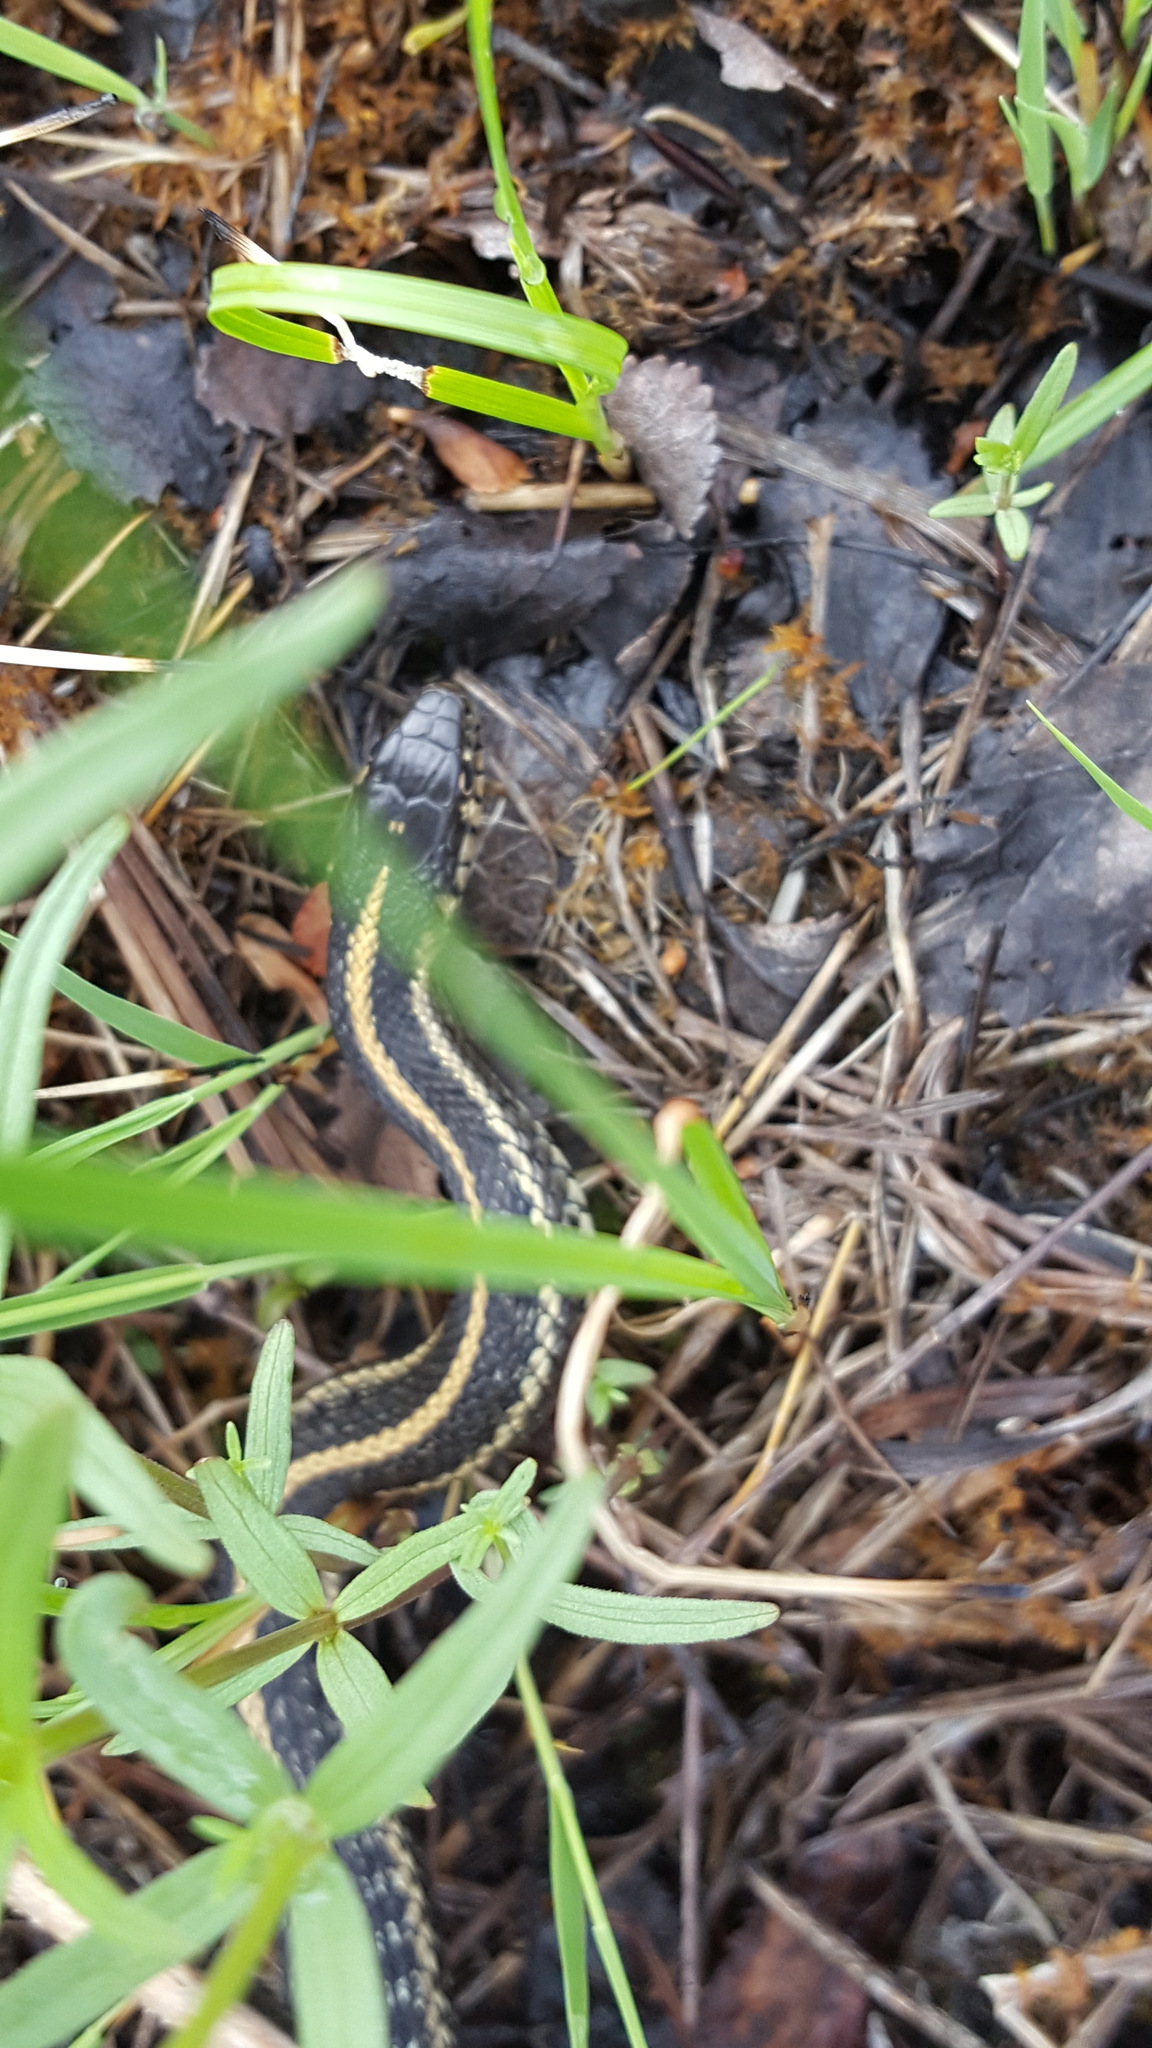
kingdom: Animalia
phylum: Chordata
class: Squamata
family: Colubridae
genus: Thamnophis
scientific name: Thamnophis radix
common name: Plains garter snake
